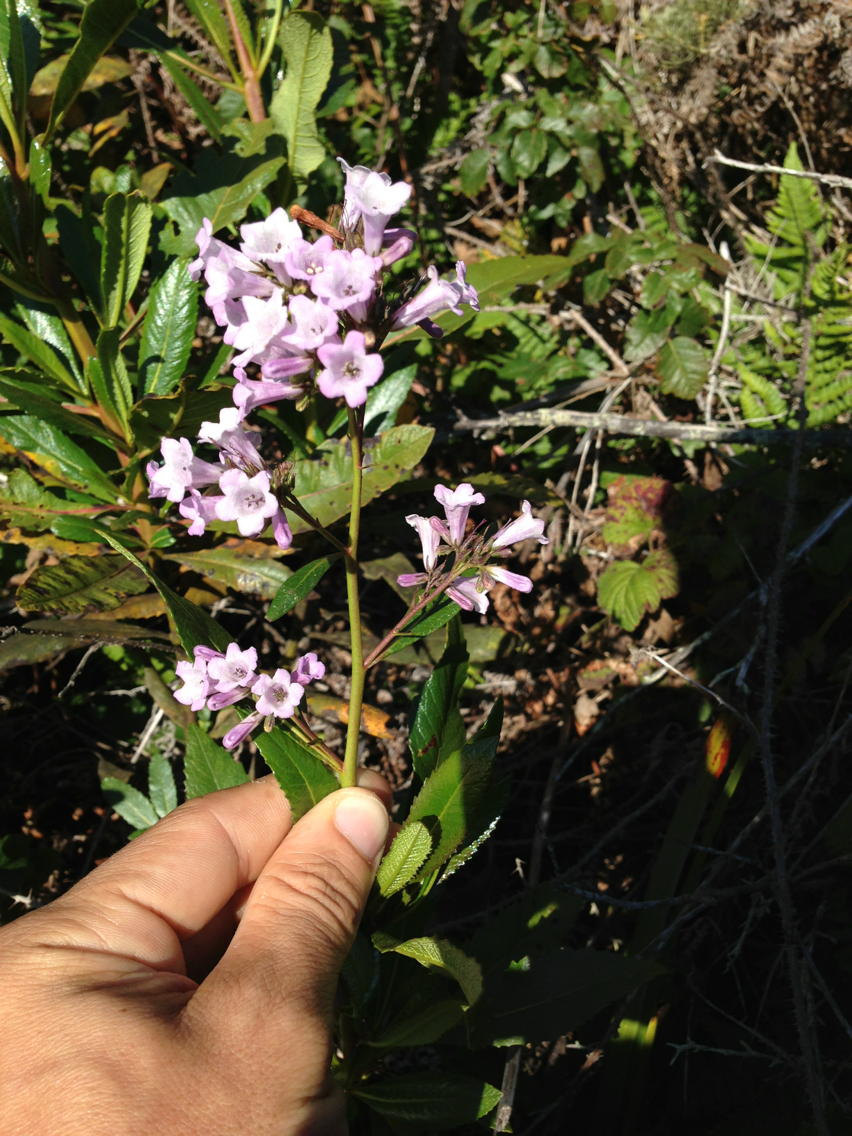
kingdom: Plantae
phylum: Tracheophyta
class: Magnoliopsida
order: Boraginales
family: Namaceae
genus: Eriodictyon
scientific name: Eriodictyon californicum
